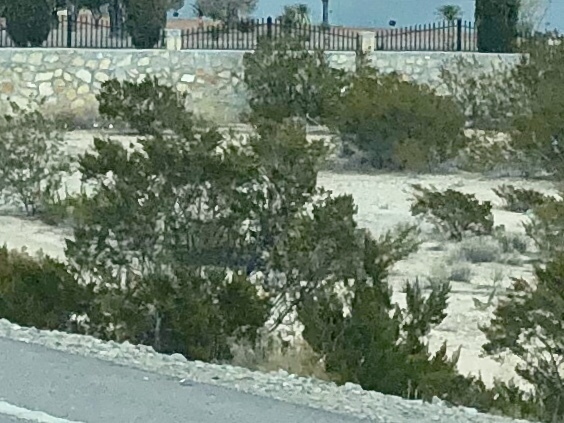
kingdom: Plantae
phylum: Tracheophyta
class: Magnoliopsida
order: Zygophyllales
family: Zygophyllaceae
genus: Larrea
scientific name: Larrea tridentata
